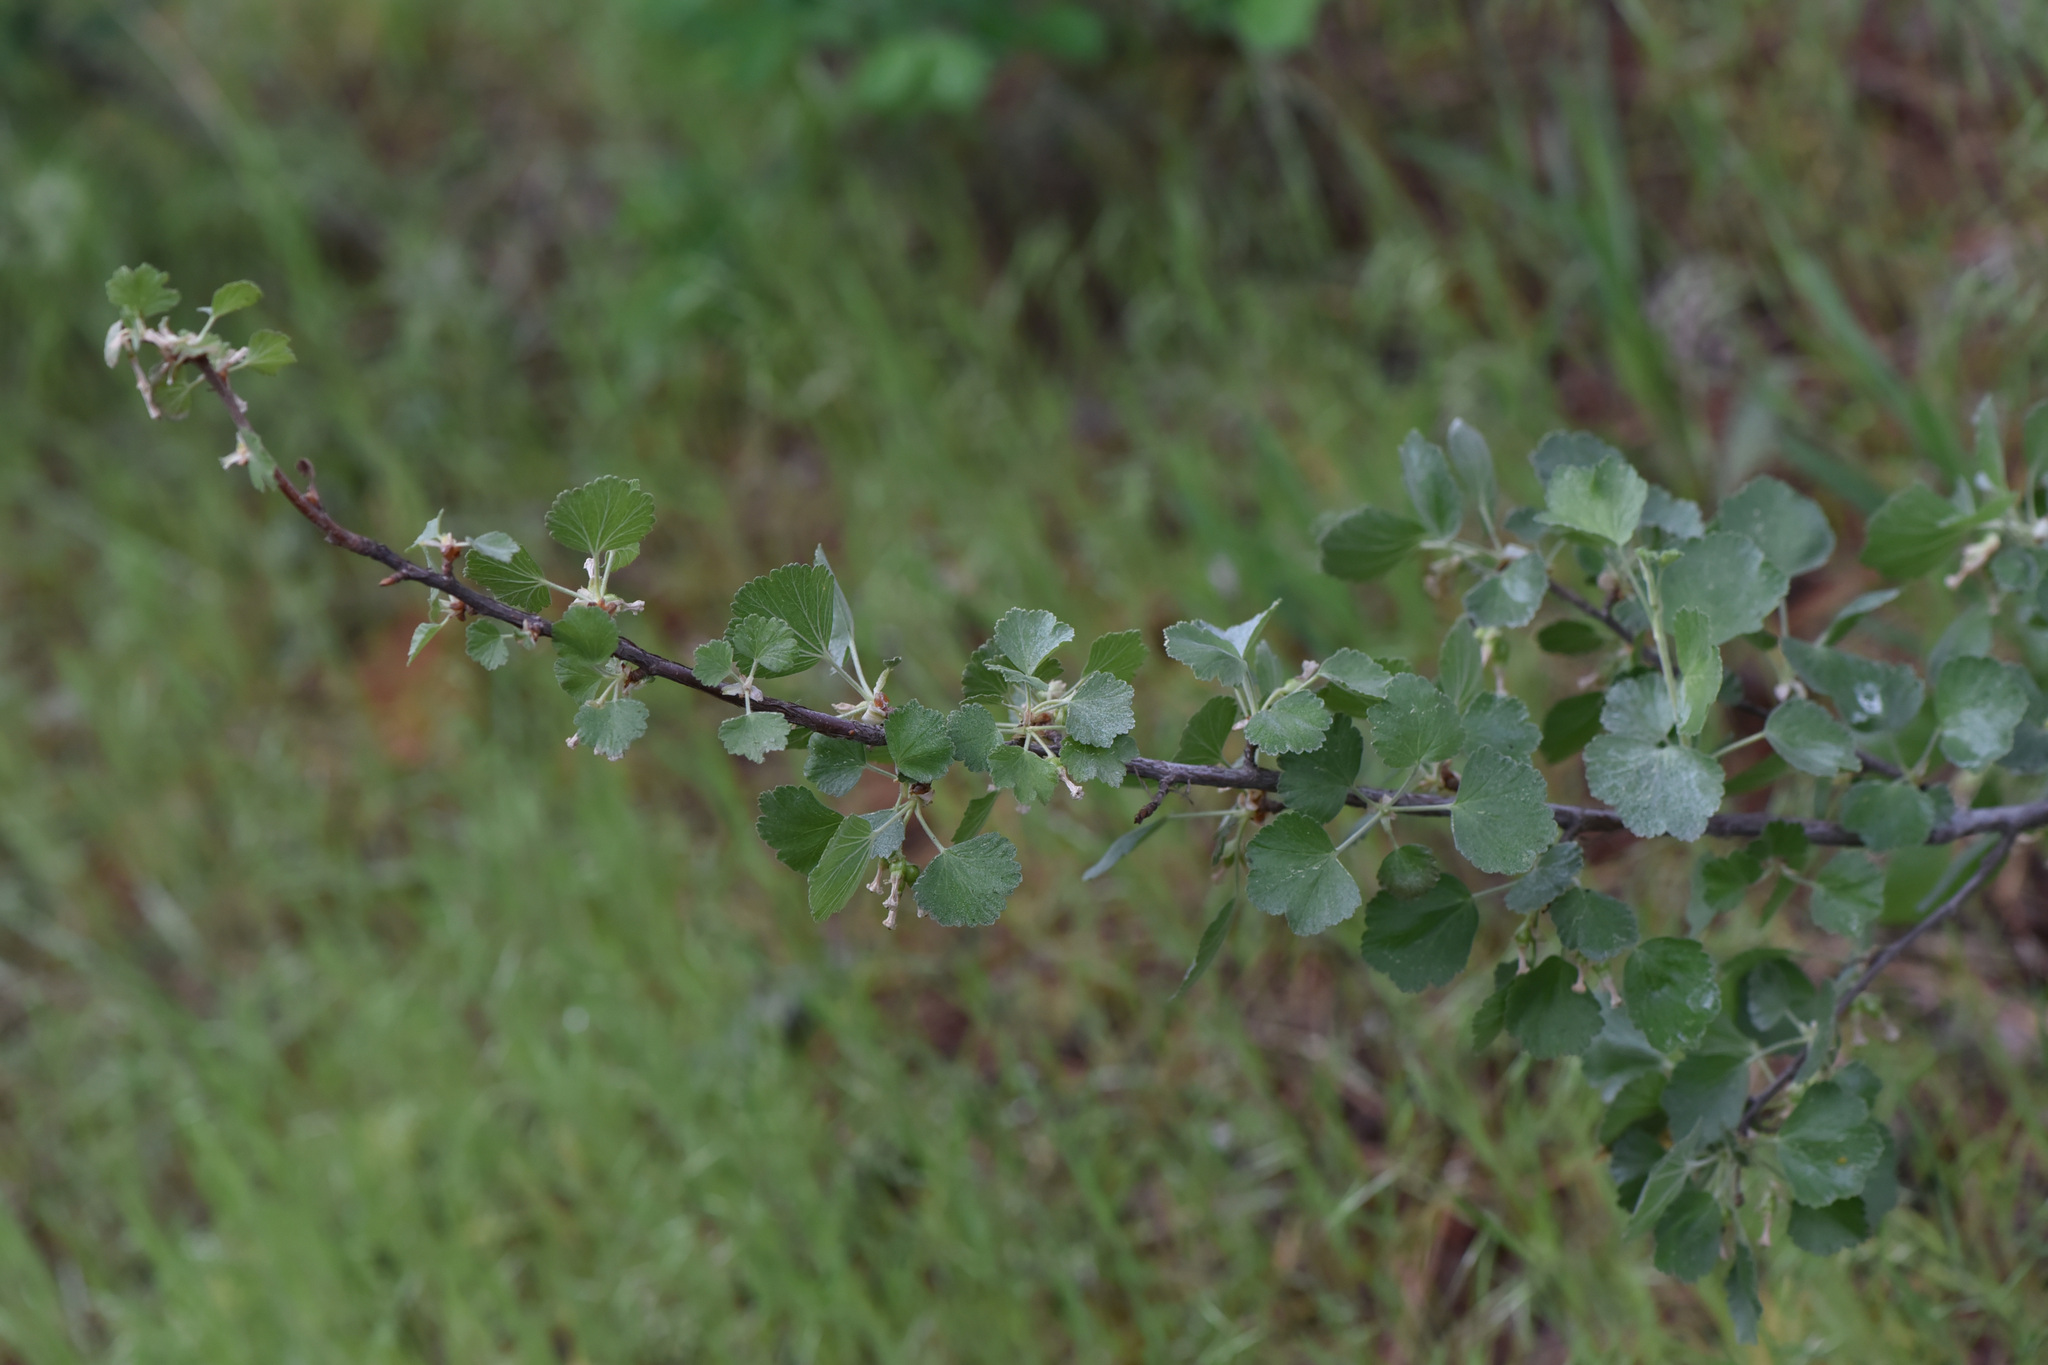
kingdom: Plantae
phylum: Tracheophyta
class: Magnoliopsida
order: Saxifragales
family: Grossulariaceae
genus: Ribes
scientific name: Ribes cereum
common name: Wax currant
